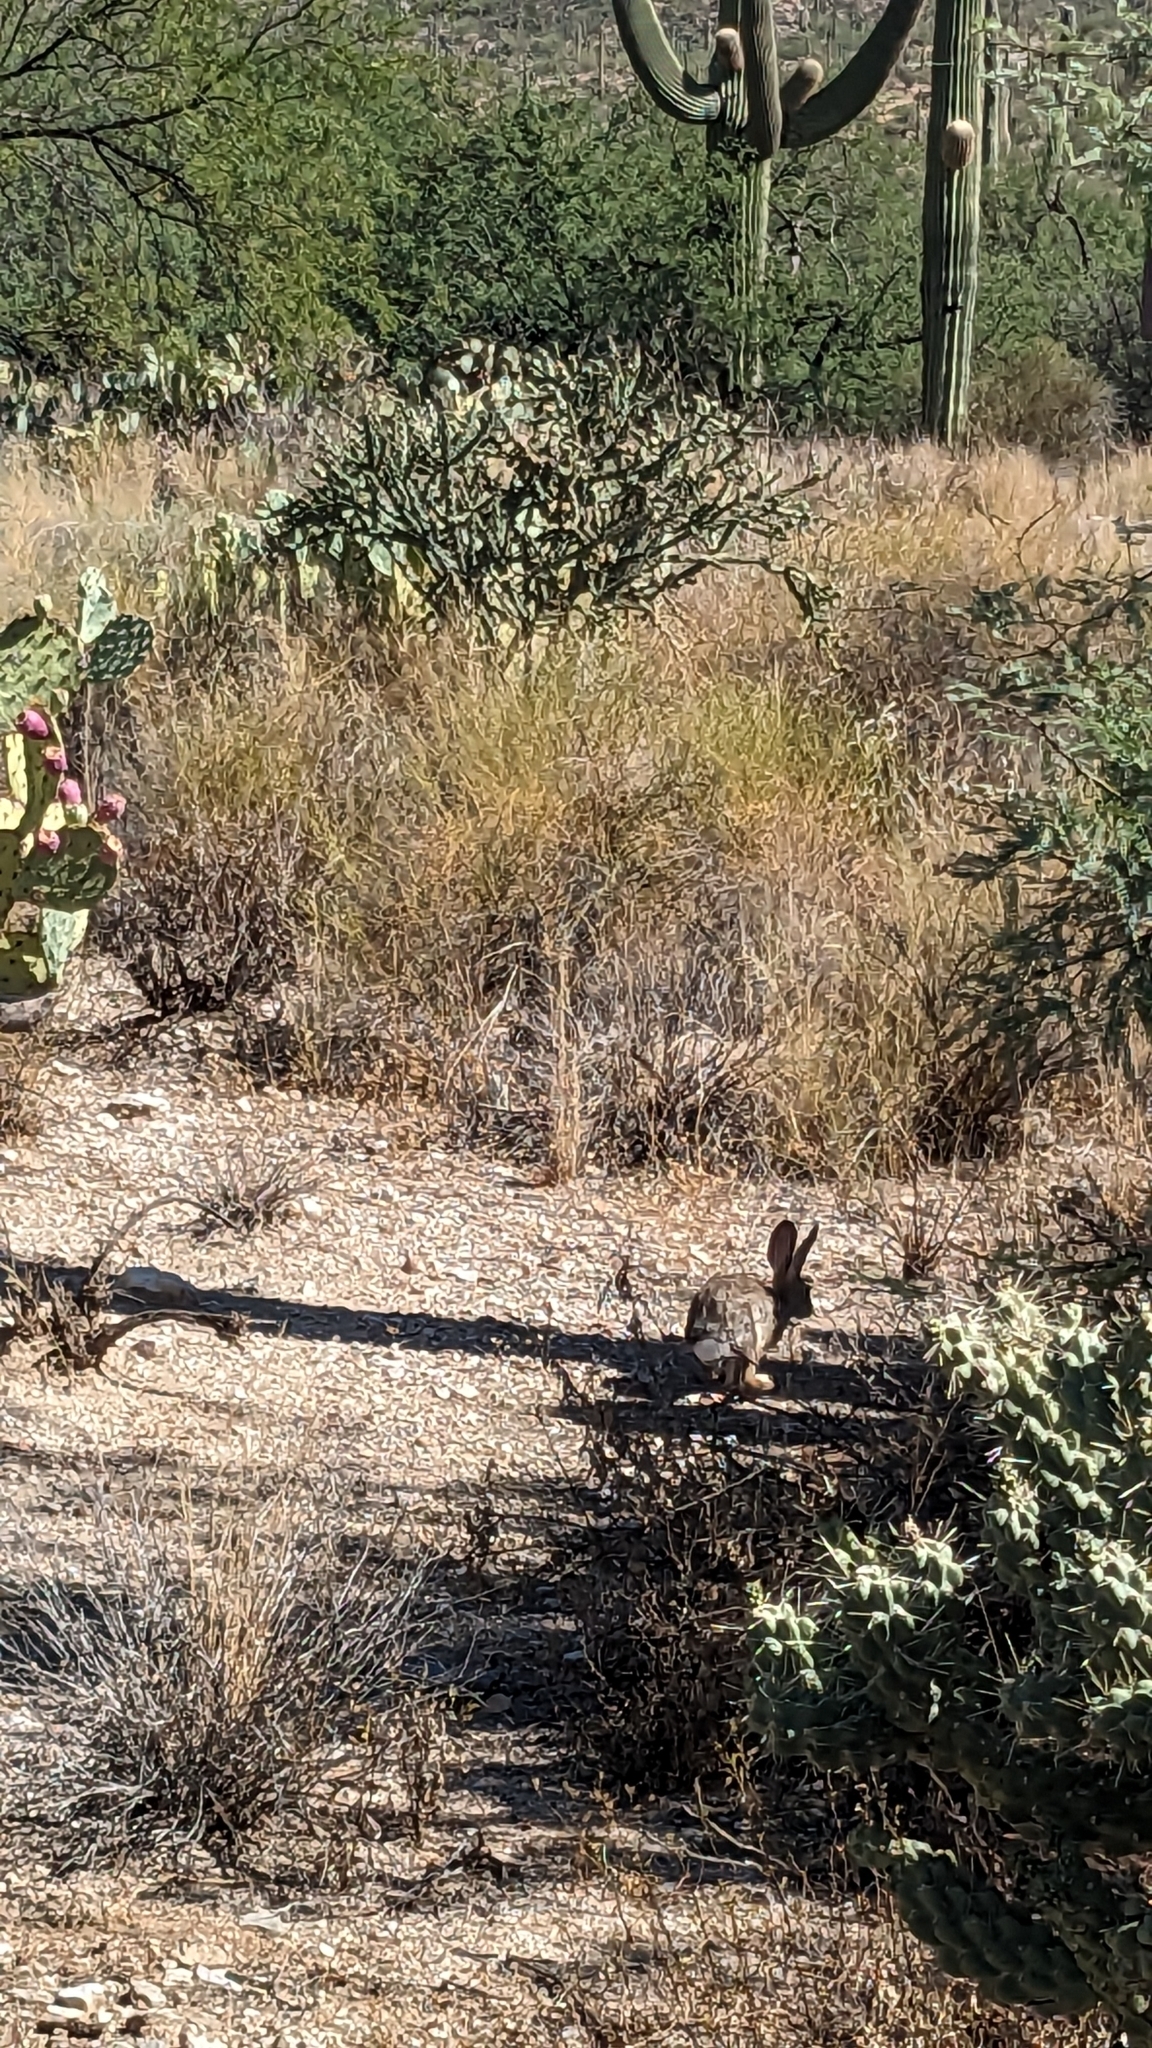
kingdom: Animalia
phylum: Chordata
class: Mammalia
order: Lagomorpha
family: Leporidae
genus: Sylvilagus
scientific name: Sylvilagus audubonii
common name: Desert cottontail
